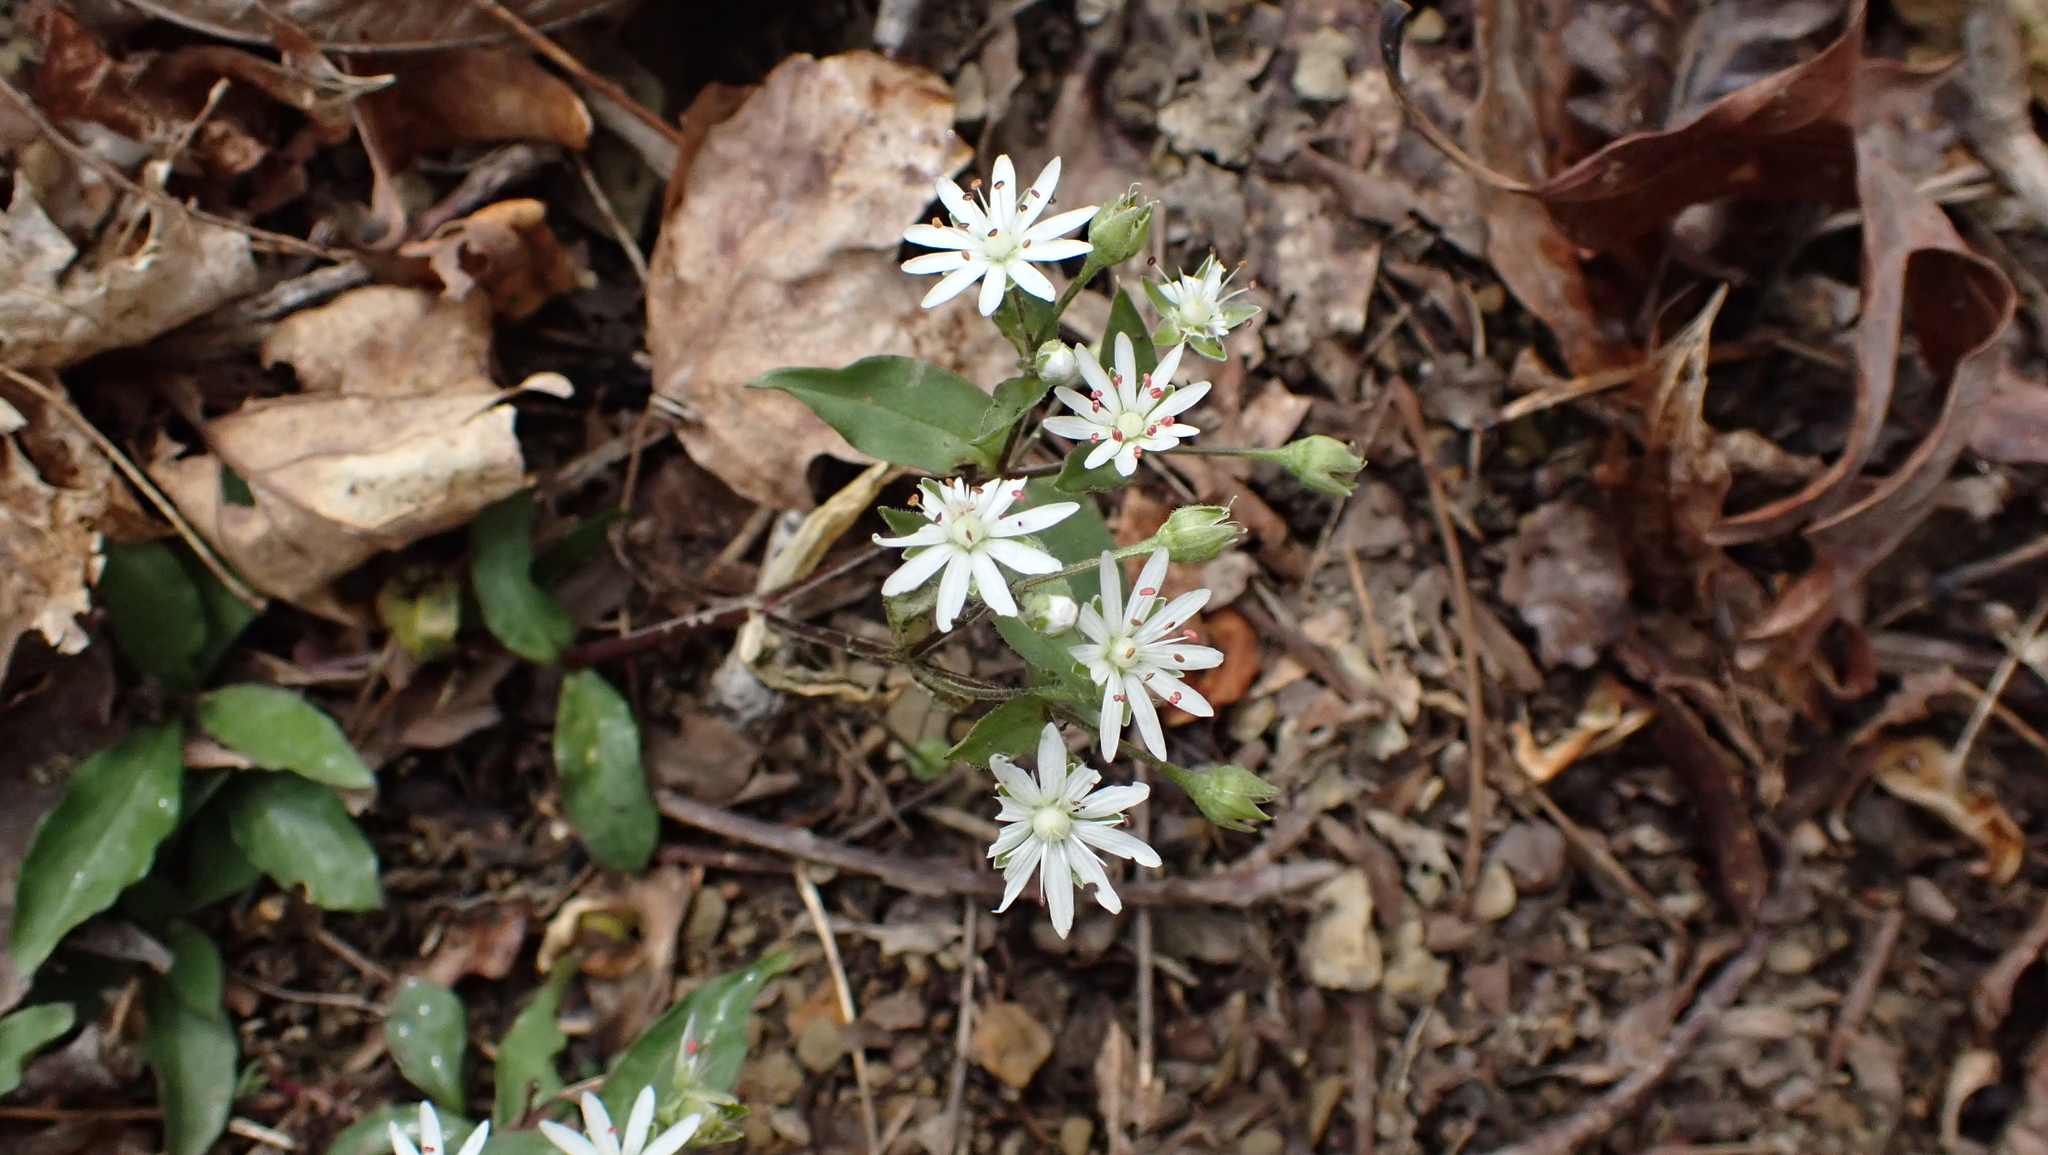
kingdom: Plantae
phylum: Tracheophyta
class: Magnoliopsida
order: Caryophyllales
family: Caryophyllaceae
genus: Stellaria
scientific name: Stellaria pubera
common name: Star chickweed
